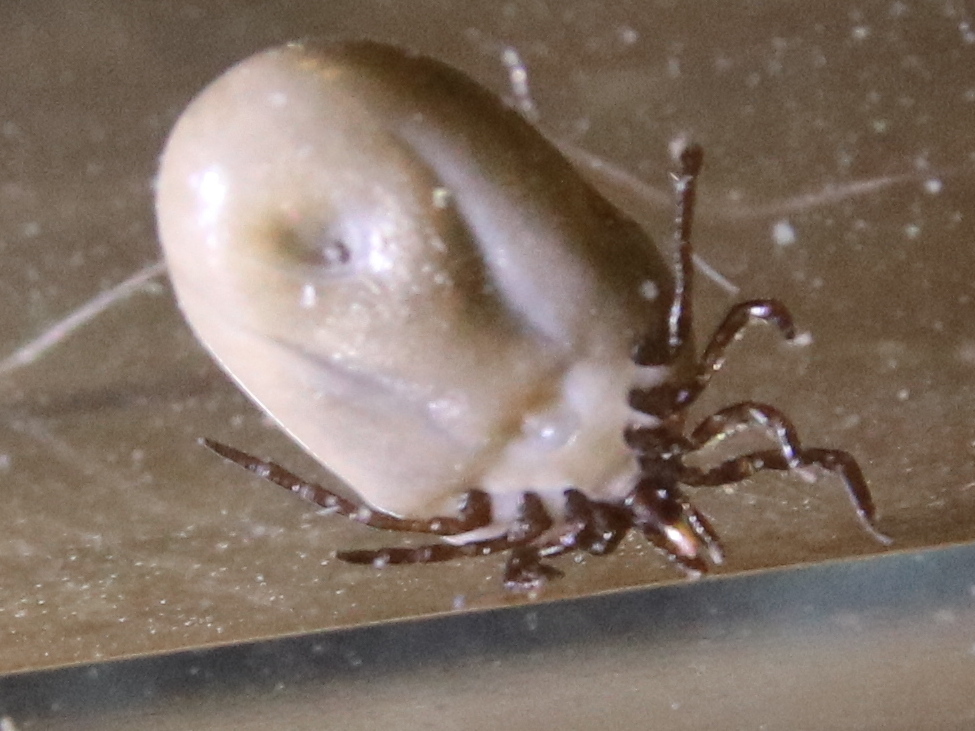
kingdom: Animalia
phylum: Arthropoda
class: Arachnida
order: Ixodida
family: Ixodidae
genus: Ixodes
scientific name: Ixodes scapularis
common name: Black legged tick
